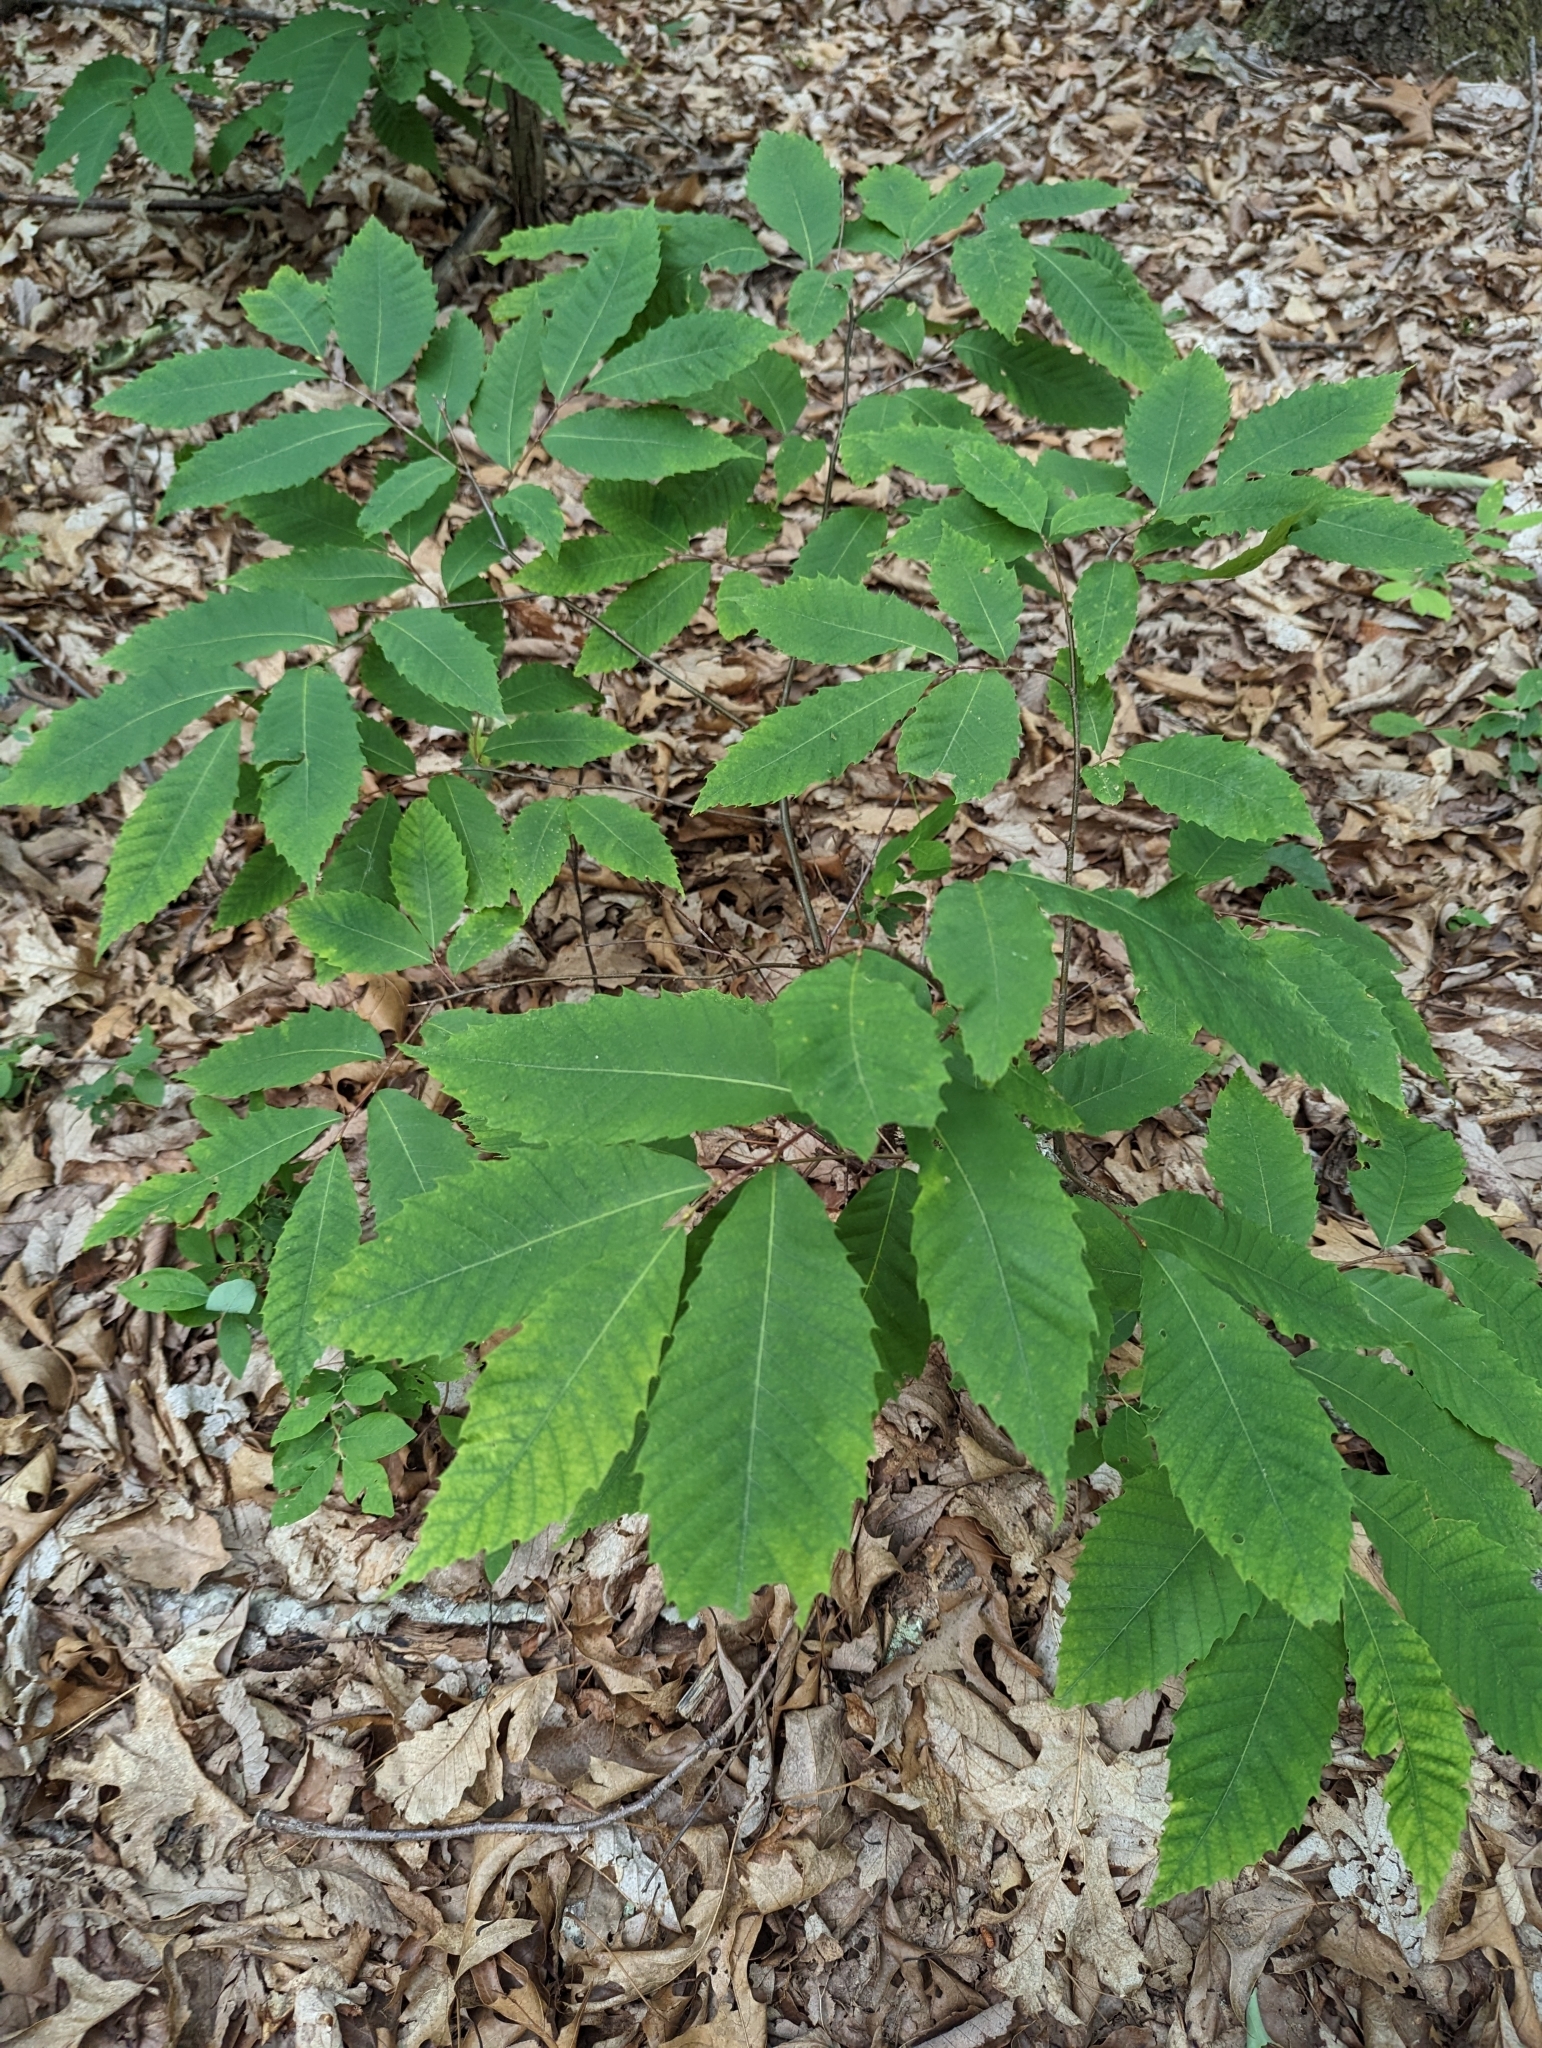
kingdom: Plantae
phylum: Tracheophyta
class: Magnoliopsida
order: Fagales
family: Fagaceae
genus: Castanea
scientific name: Castanea dentata
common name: American chestnut
